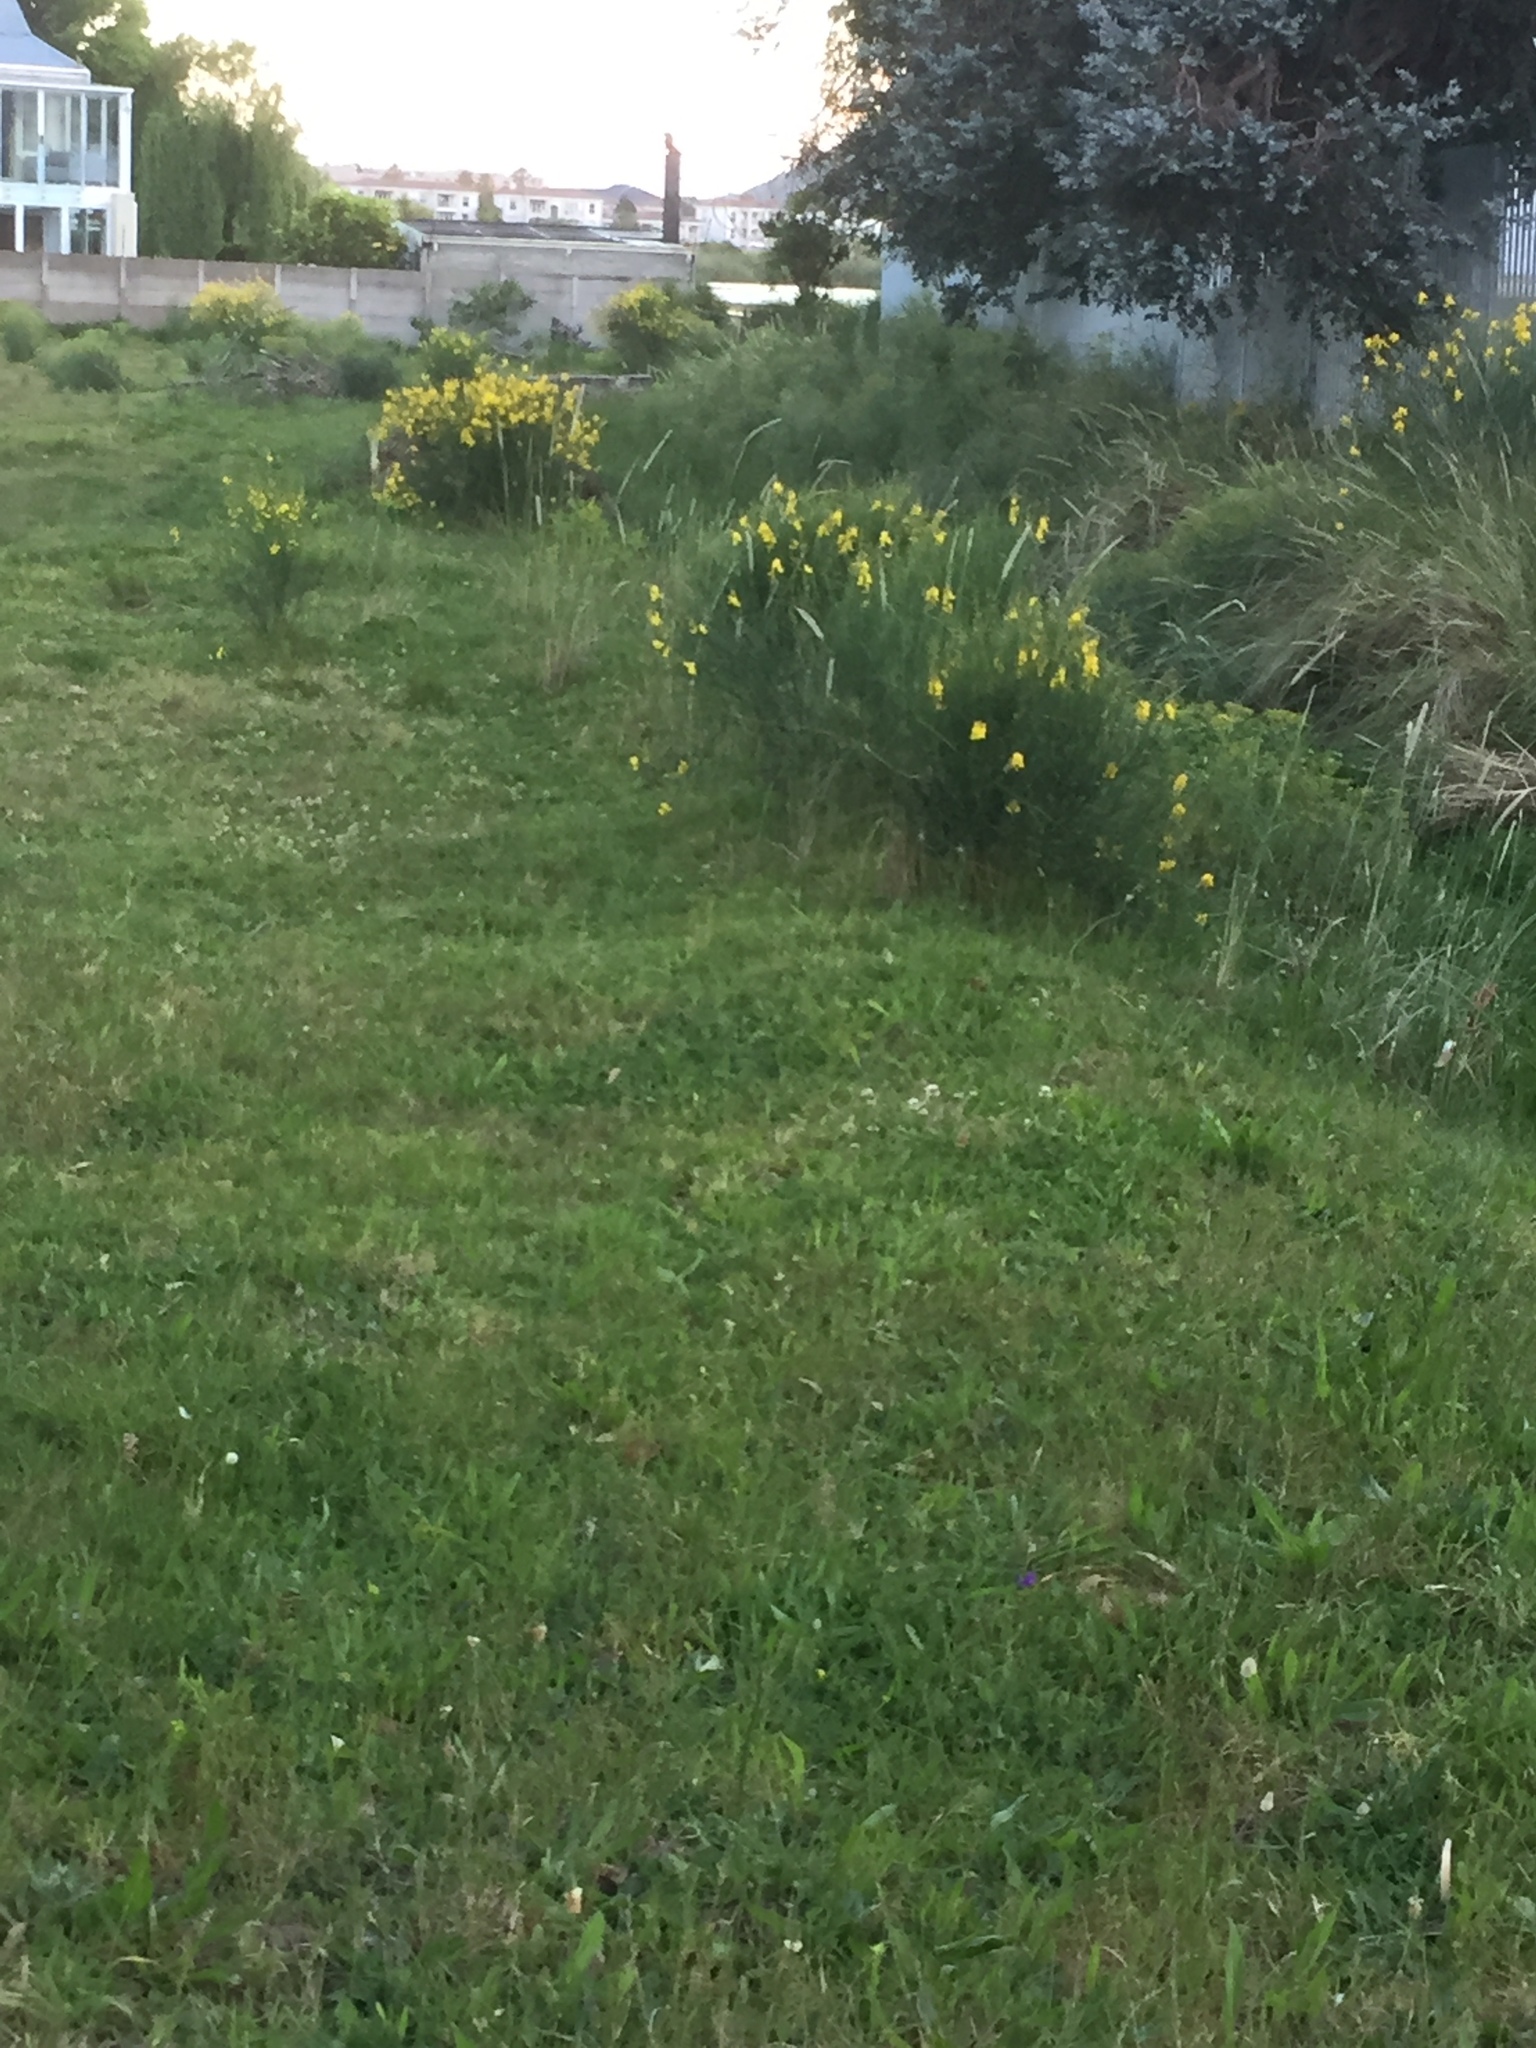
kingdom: Plantae
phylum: Tracheophyta
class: Magnoliopsida
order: Fabales
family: Fabaceae
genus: Spartium
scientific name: Spartium junceum
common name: Spanish broom
